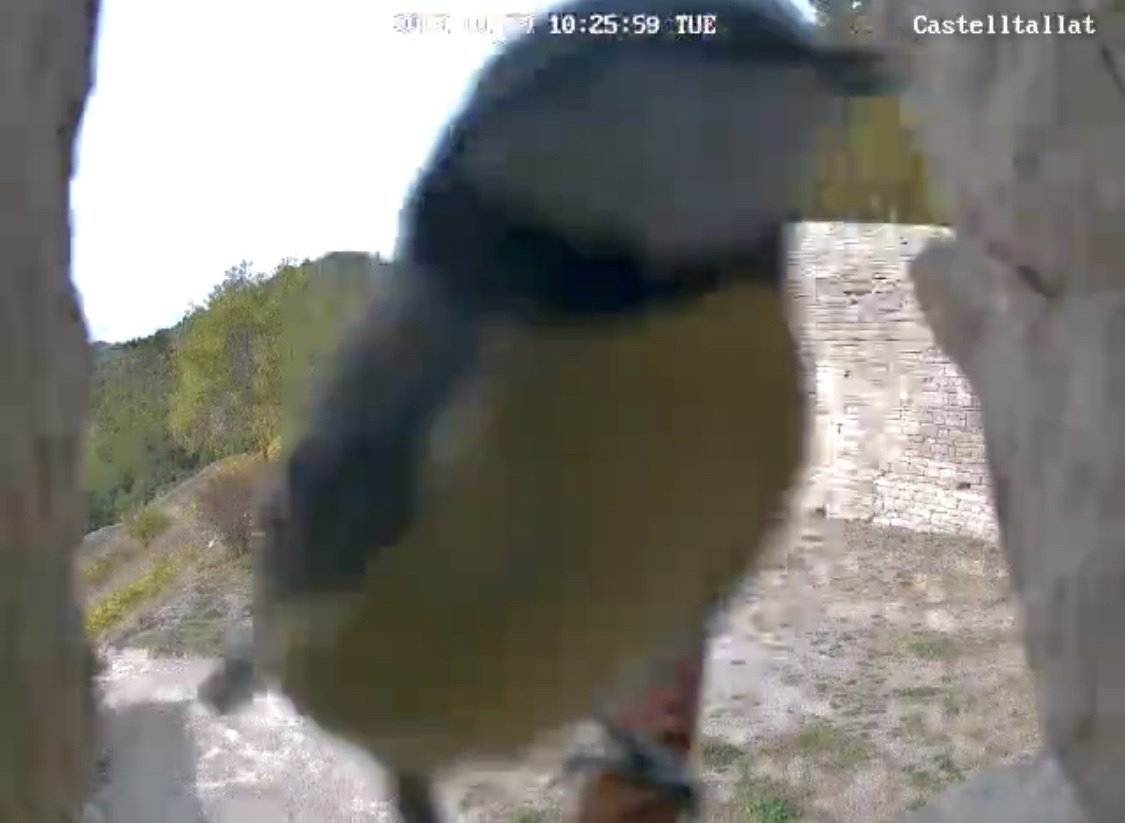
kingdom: Animalia
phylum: Chordata
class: Aves
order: Passeriformes
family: Paridae
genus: Cyanistes
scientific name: Cyanistes caeruleus
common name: Eurasian blue tit
